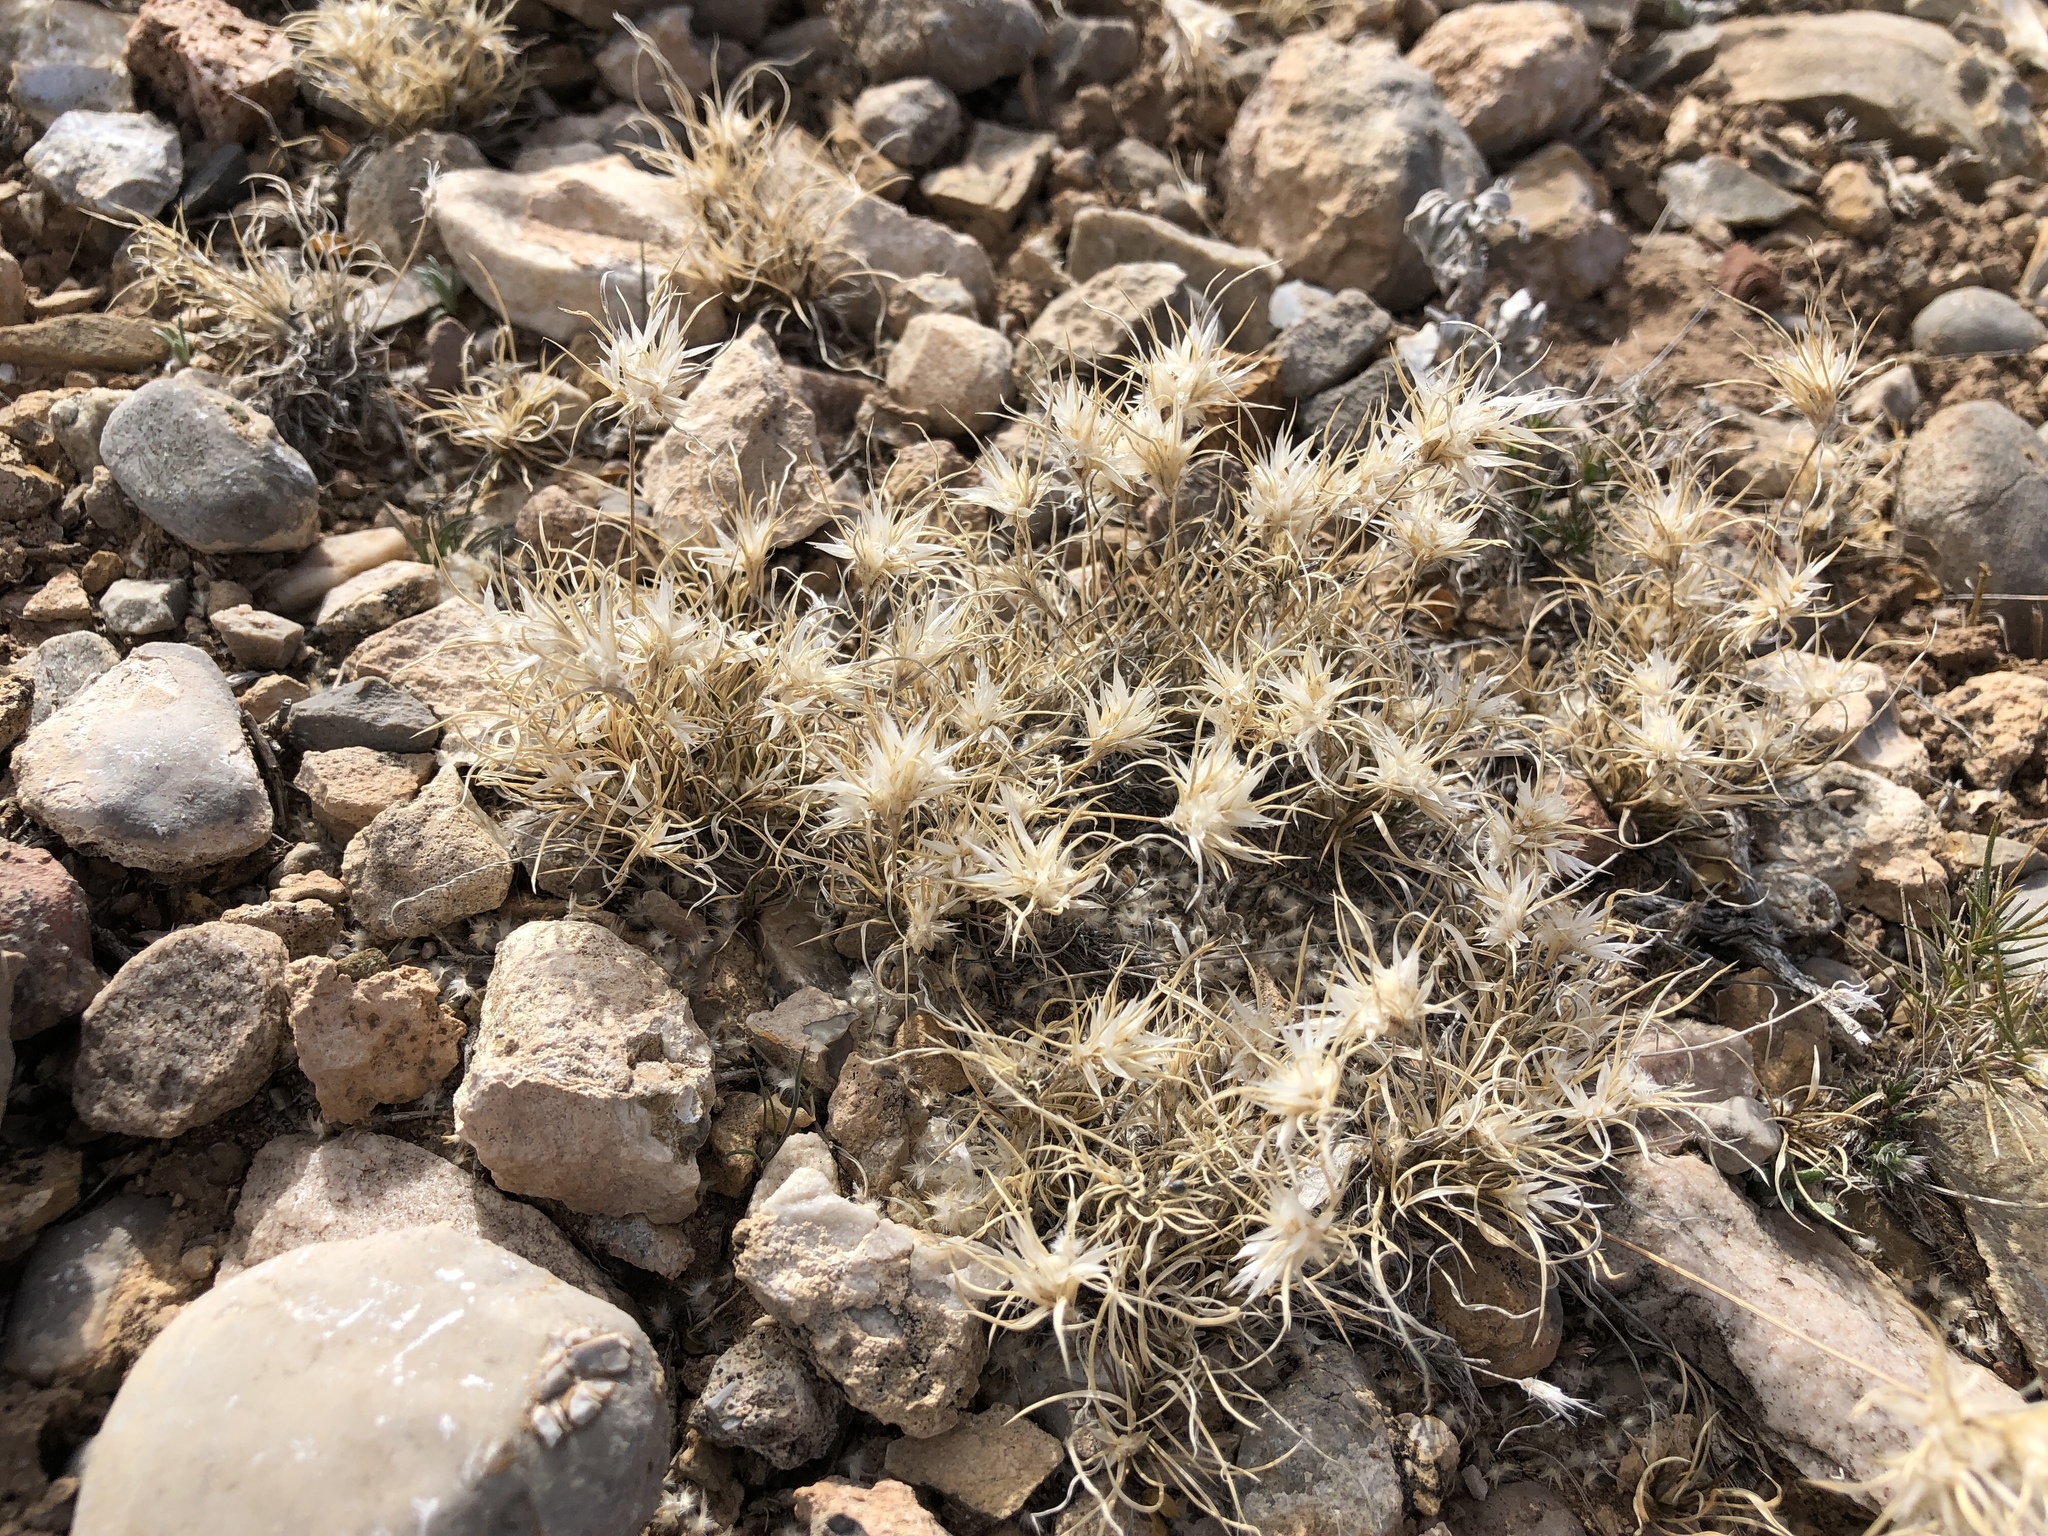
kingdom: Plantae
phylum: Tracheophyta
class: Liliopsida
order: Poales
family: Poaceae
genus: Dasyochloa
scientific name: Dasyochloa pulchella
